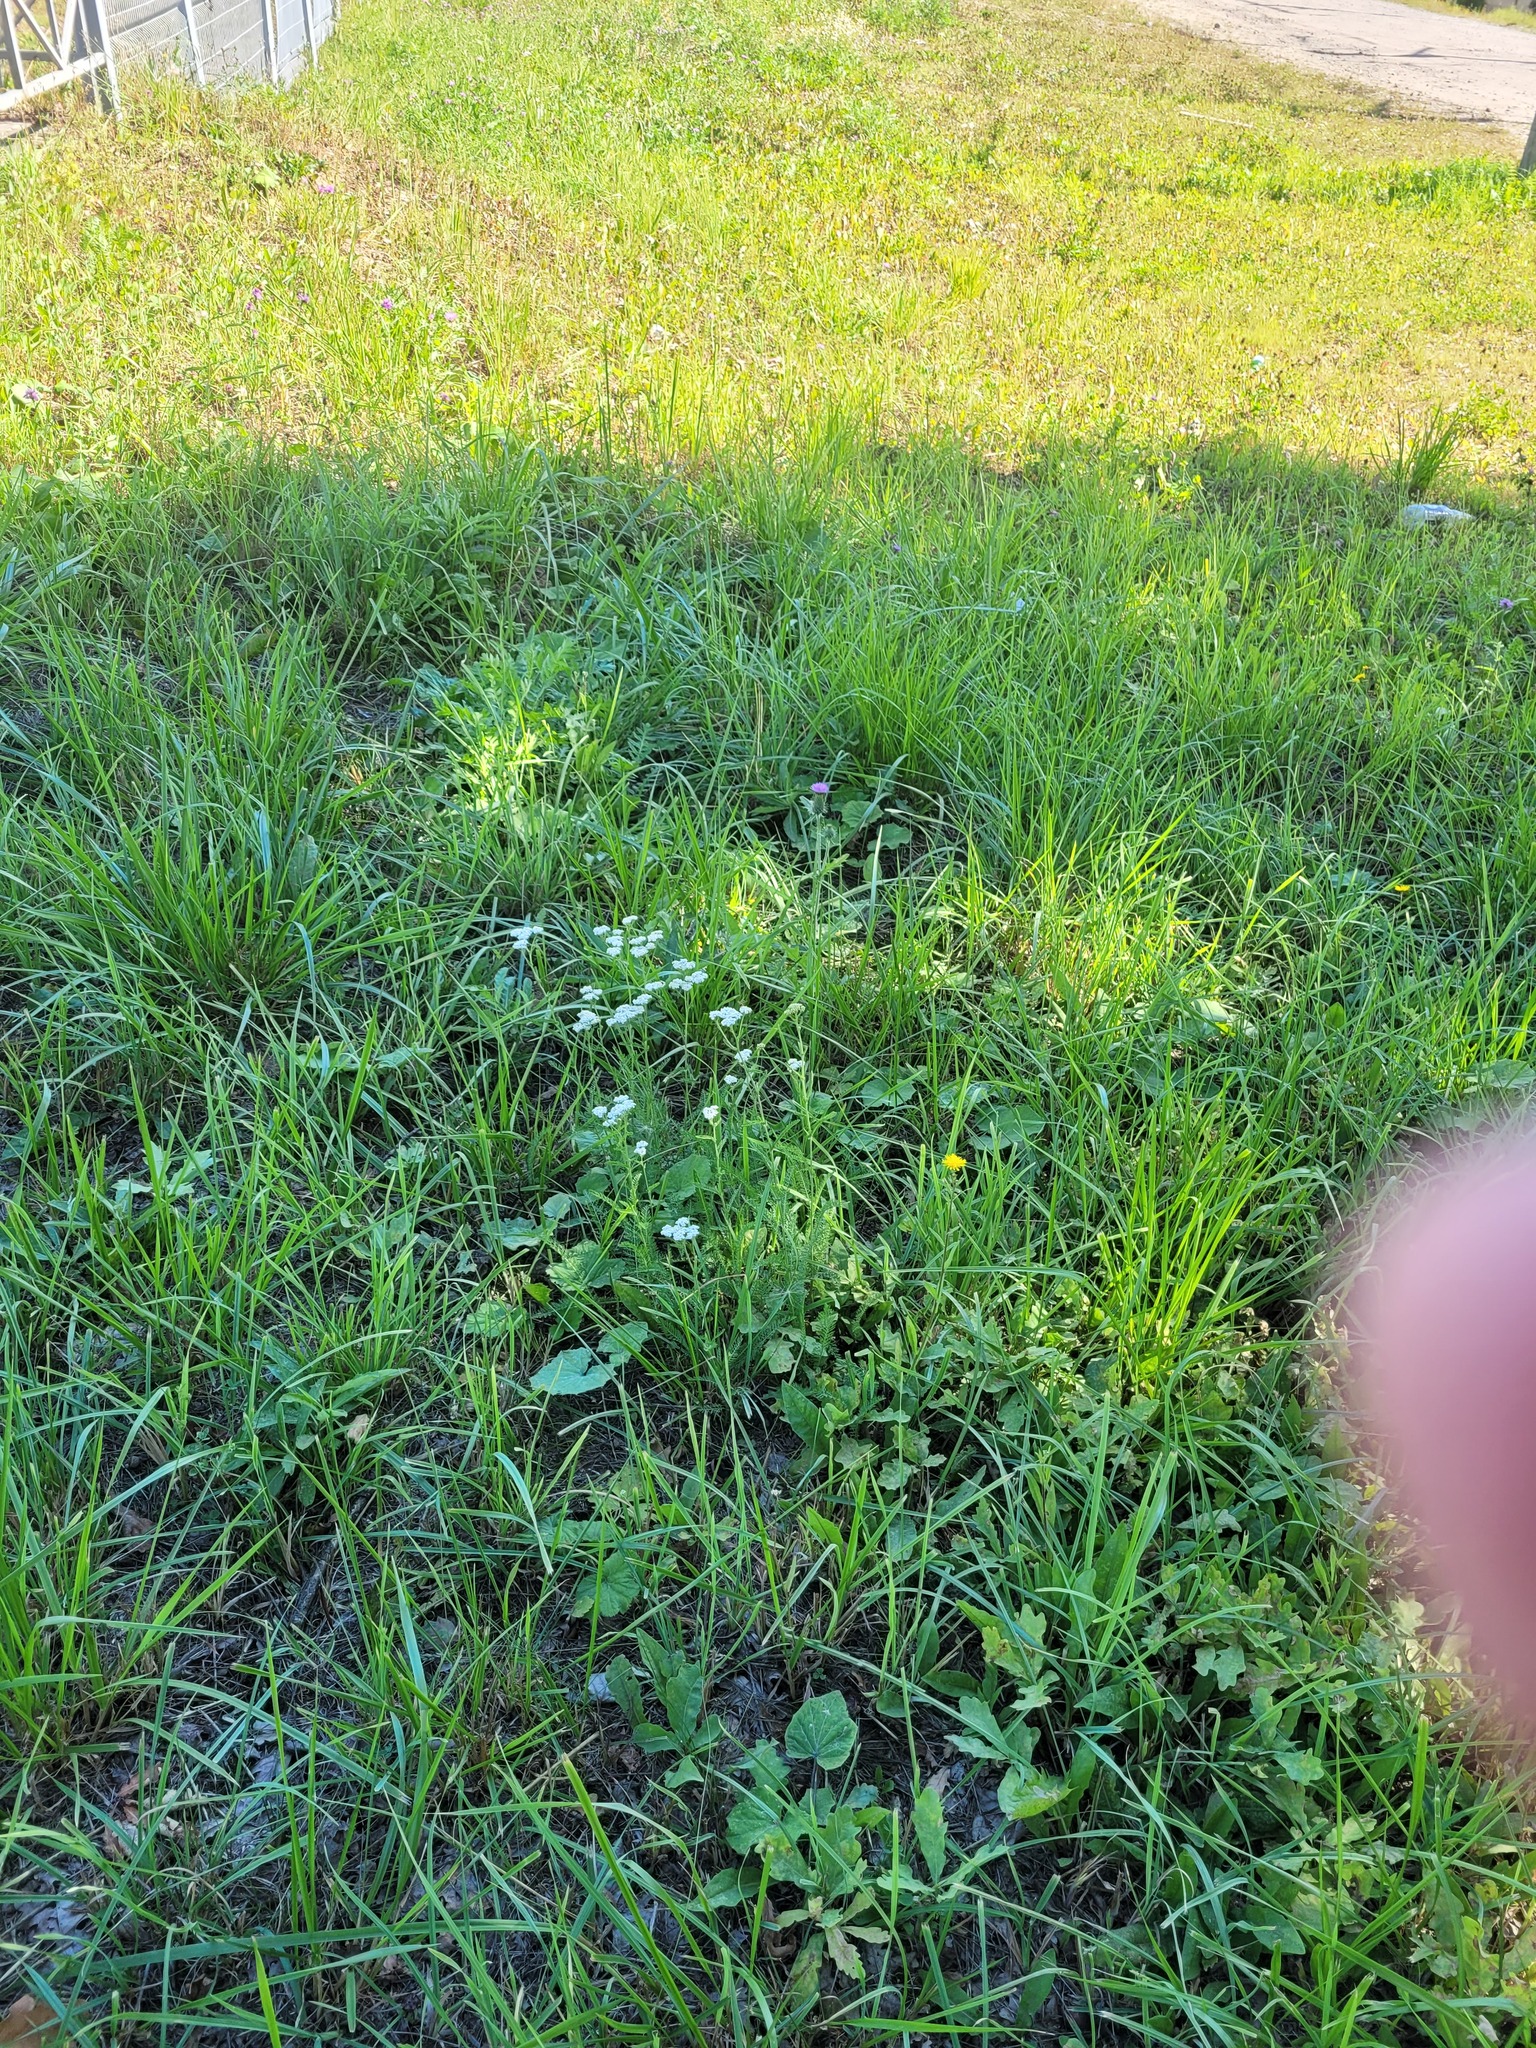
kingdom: Plantae
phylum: Tracheophyta
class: Magnoliopsida
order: Asterales
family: Asteraceae
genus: Achillea
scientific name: Achillea millefolium
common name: Yarrow
